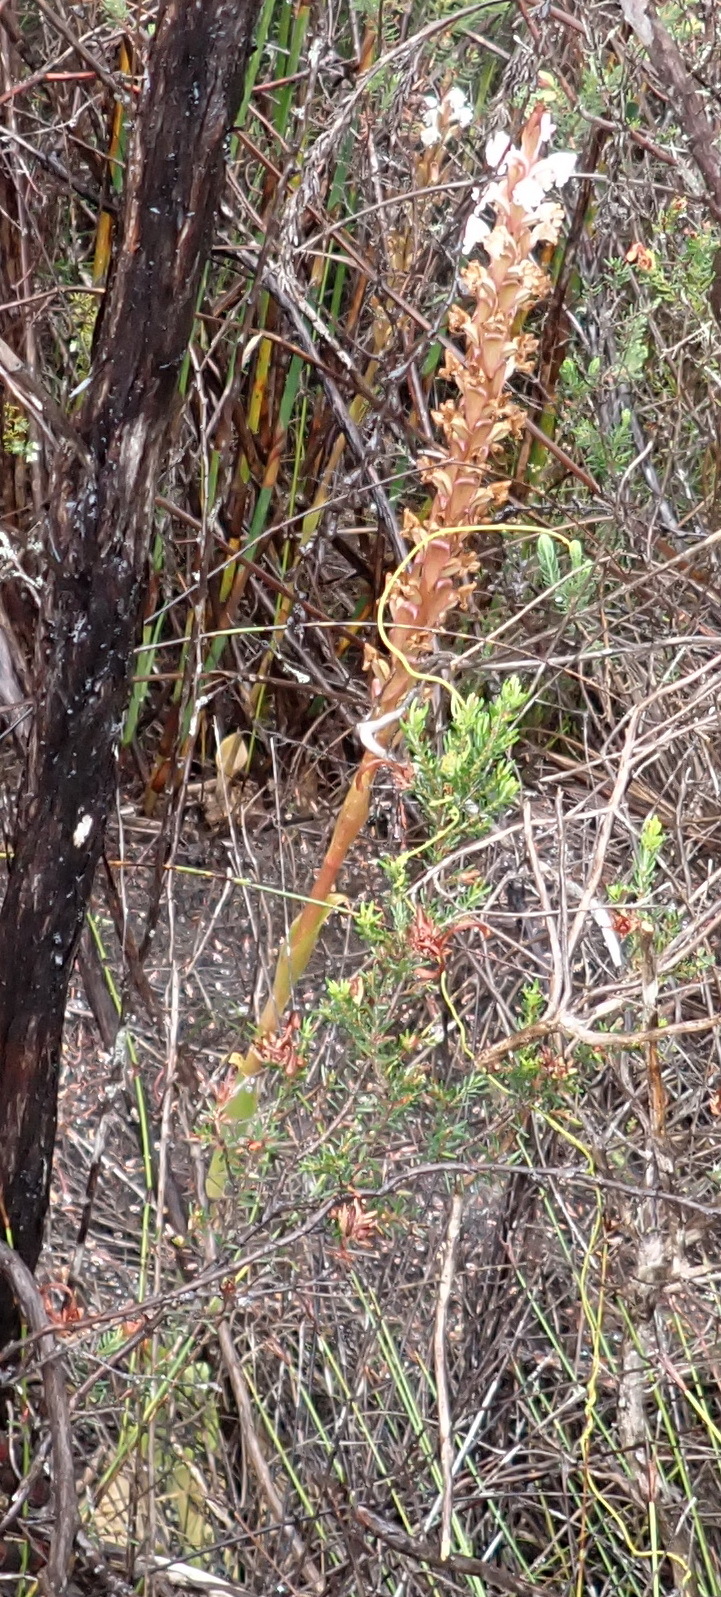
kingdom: Plantae
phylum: Tracheophyta
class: Liliopsida
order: Asparagales
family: Orchidaceae
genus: Satyrium
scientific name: Satyrium acuminatum
